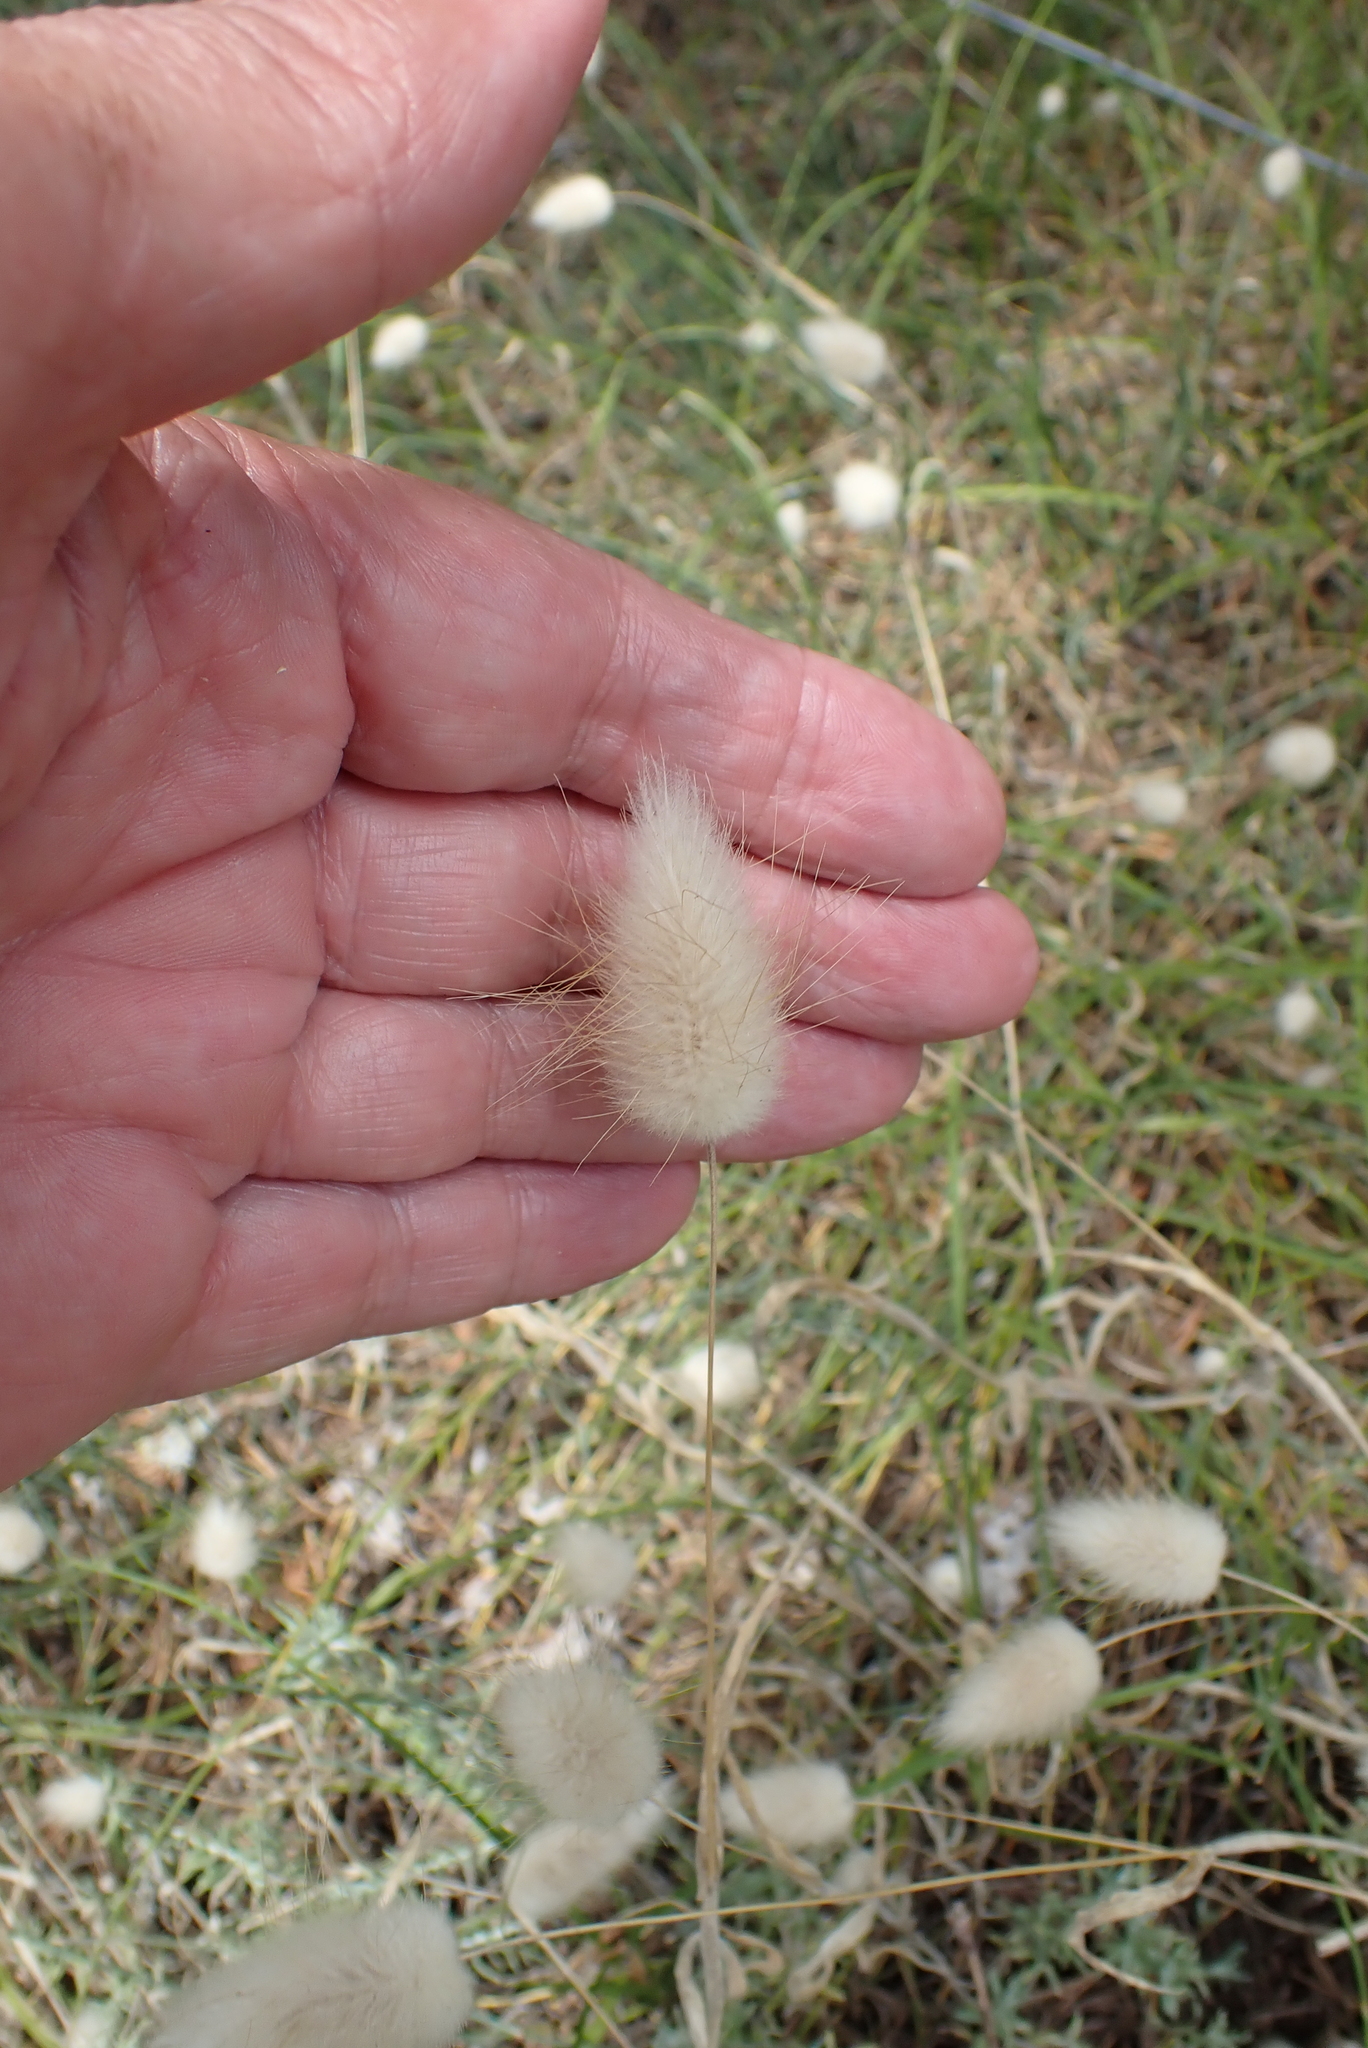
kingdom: Plantae
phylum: Tracheophyta
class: Liliopsida
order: Poales
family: Poaceae
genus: Lagurus
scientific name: Lagurus ovatus
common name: Hare's-tail
